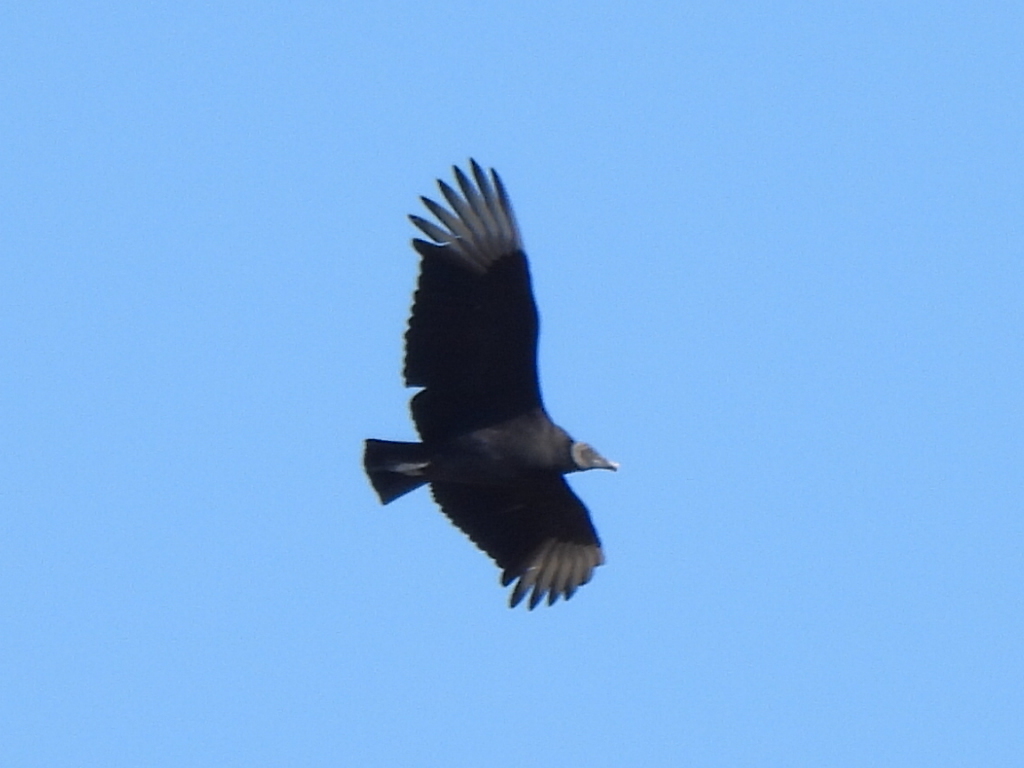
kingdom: Animalia
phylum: Chordata
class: Aves
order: Accipitriformes
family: Cathartidae
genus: Coragyps
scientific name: Coragyps atratus
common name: Black vulture
